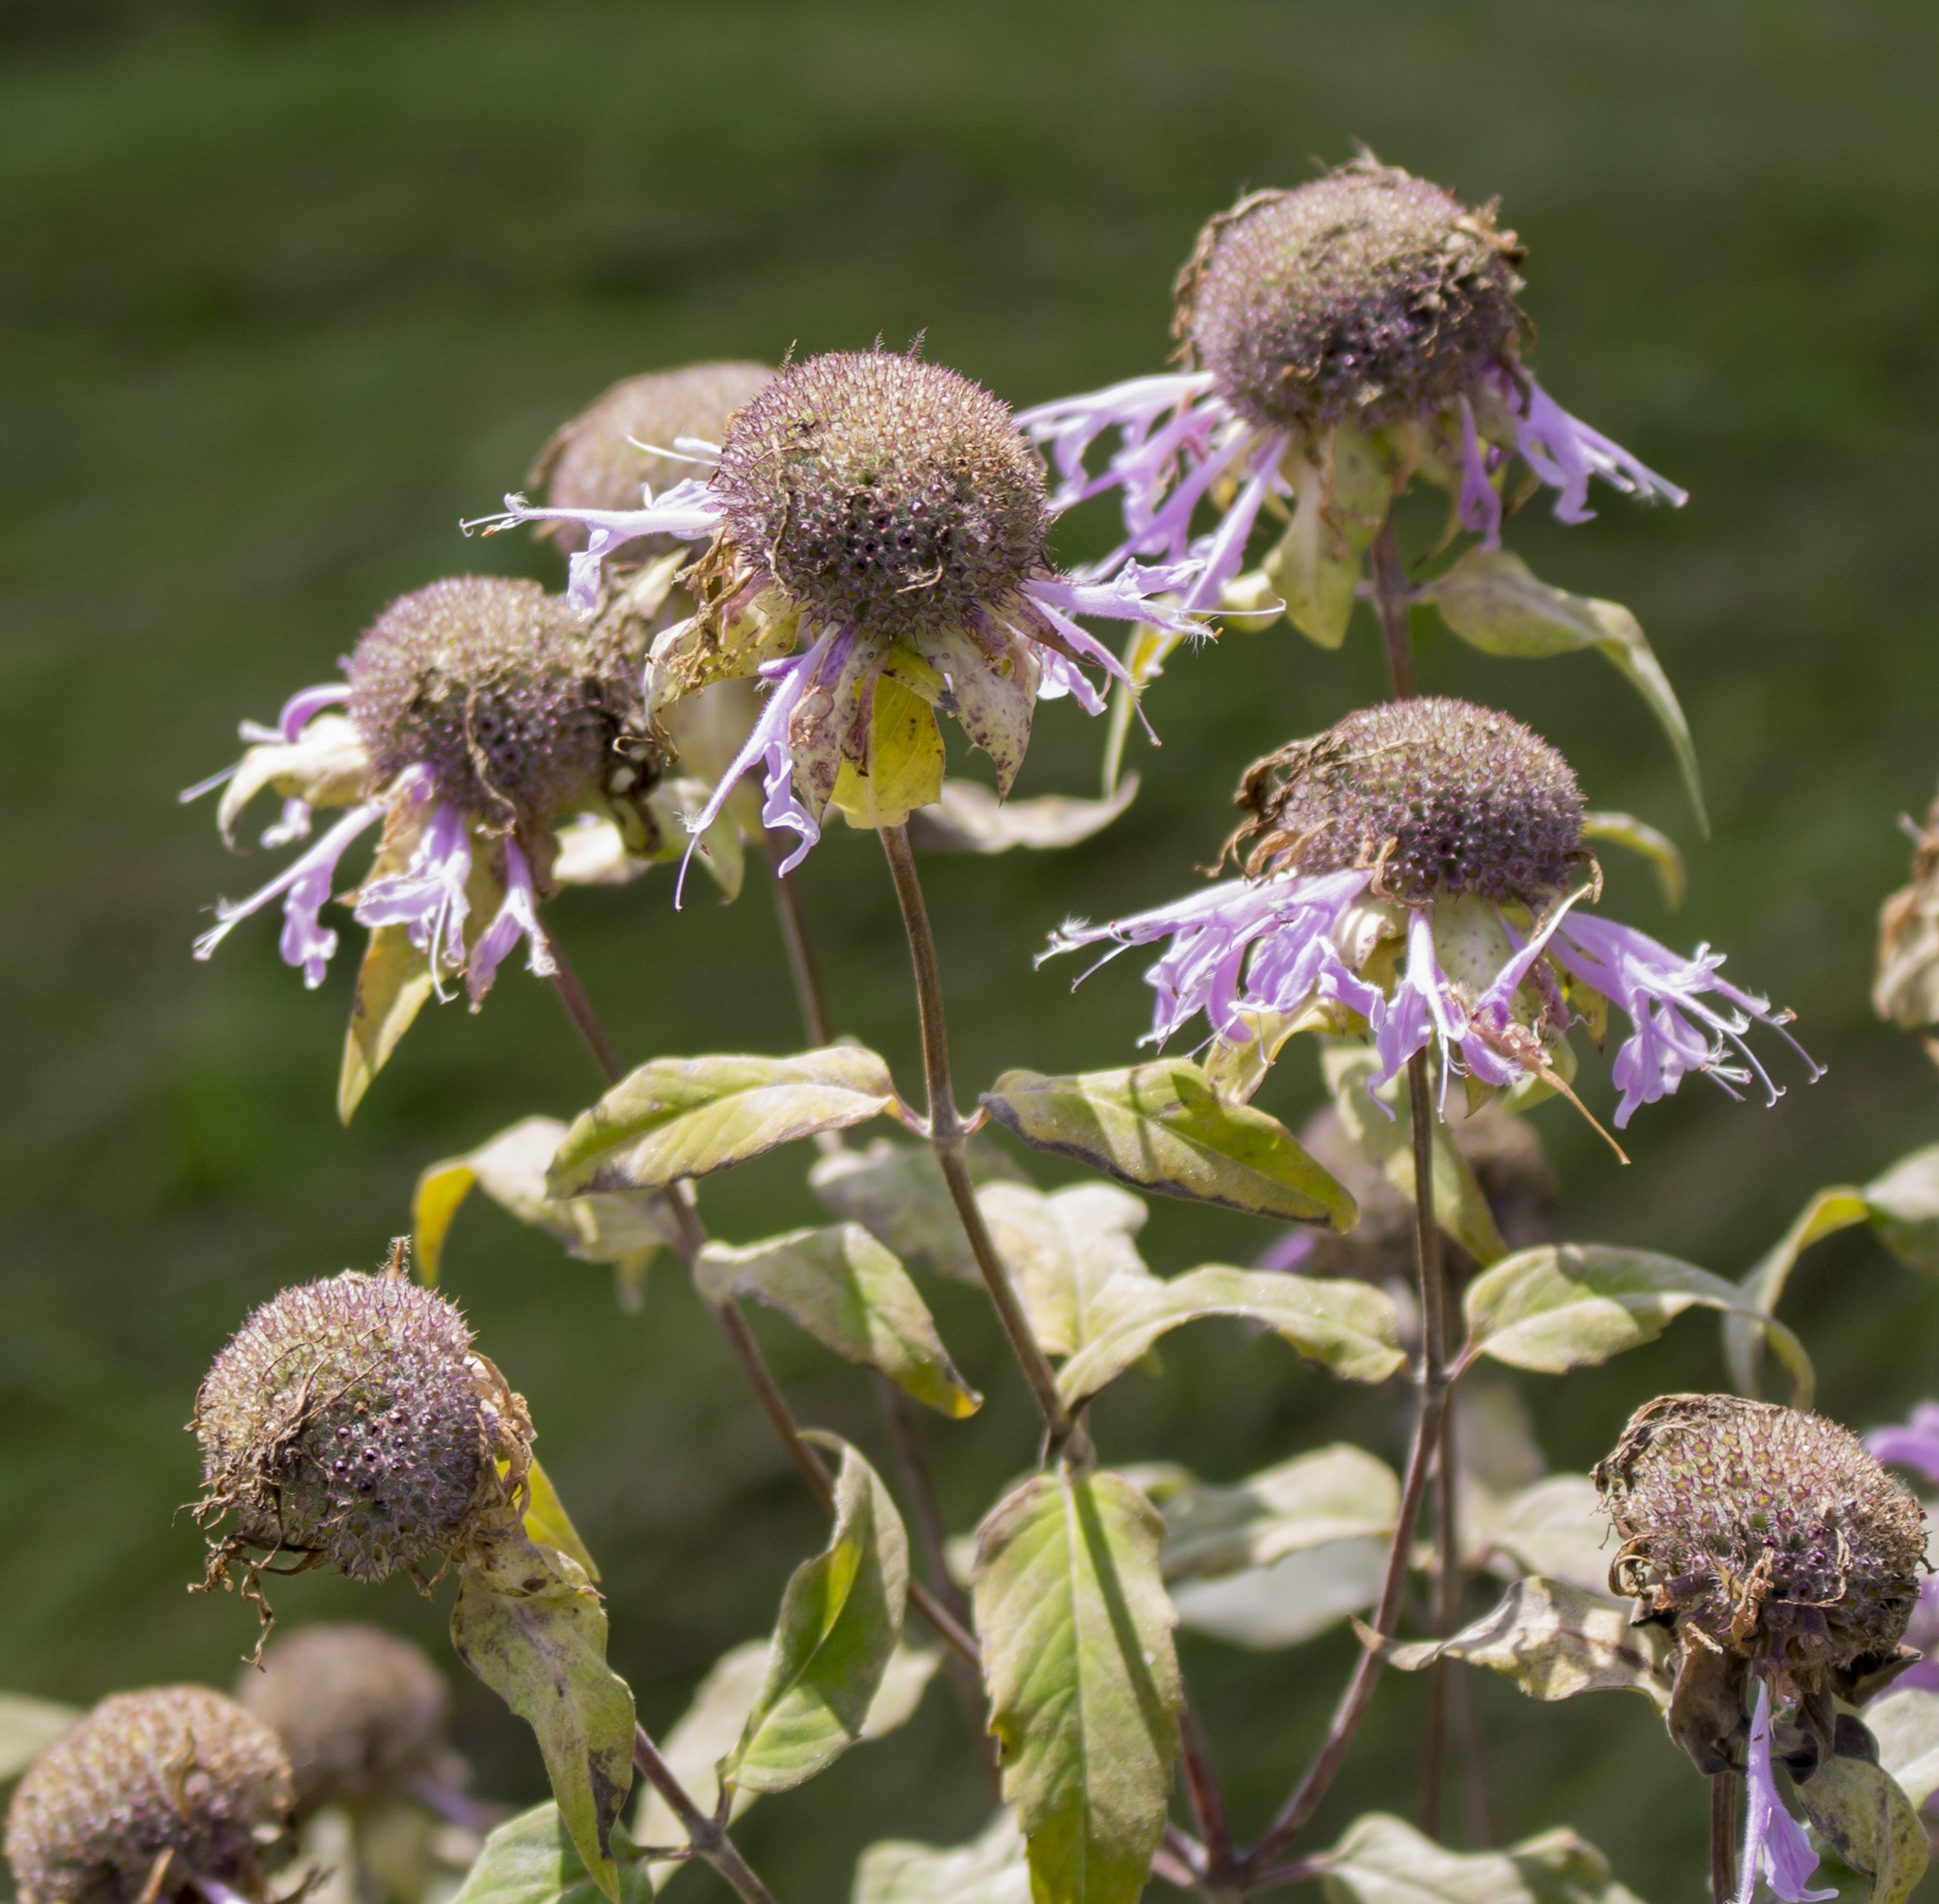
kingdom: Plantae
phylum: Tracheophyta
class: Magnoliopsida
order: Lamiales
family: Lamiaceae
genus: Monarda
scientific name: Monarda fistulosa
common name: Purple beebalm
